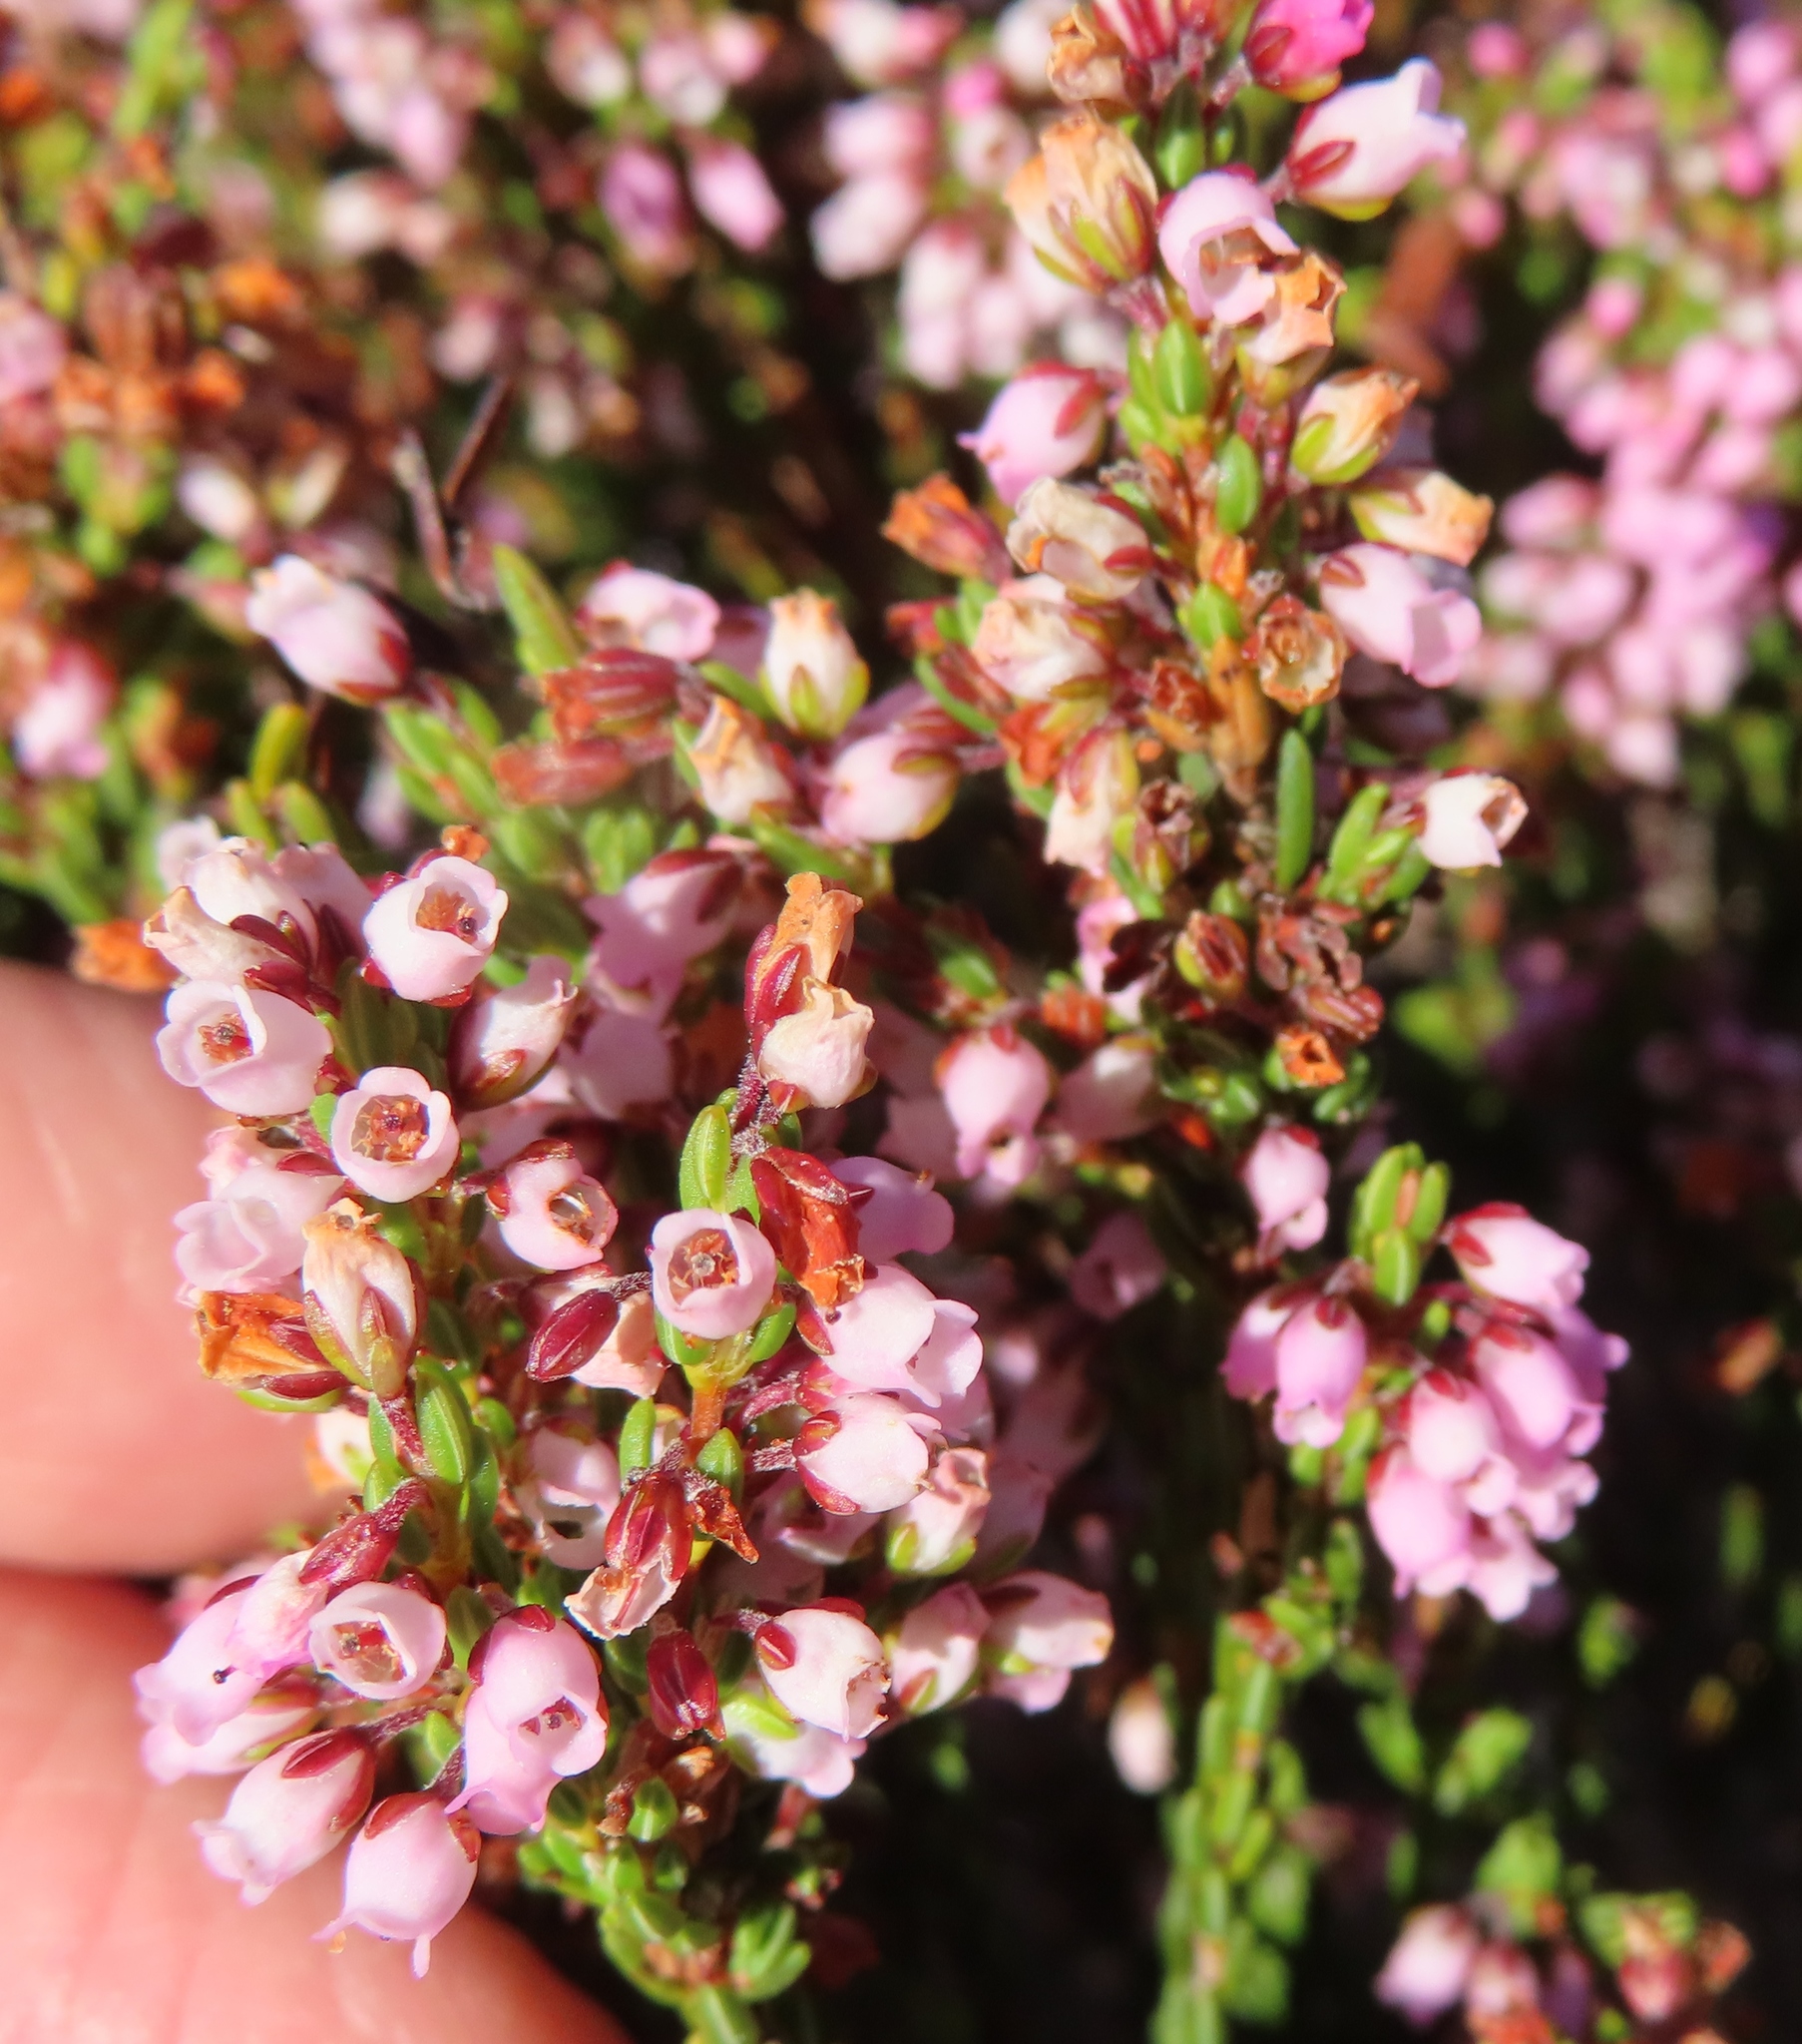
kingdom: Plantae
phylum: Tracheophyta
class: Magnoliopsida
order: Ericales
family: Ericaceae
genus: Erica
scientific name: Erica longiaristata
